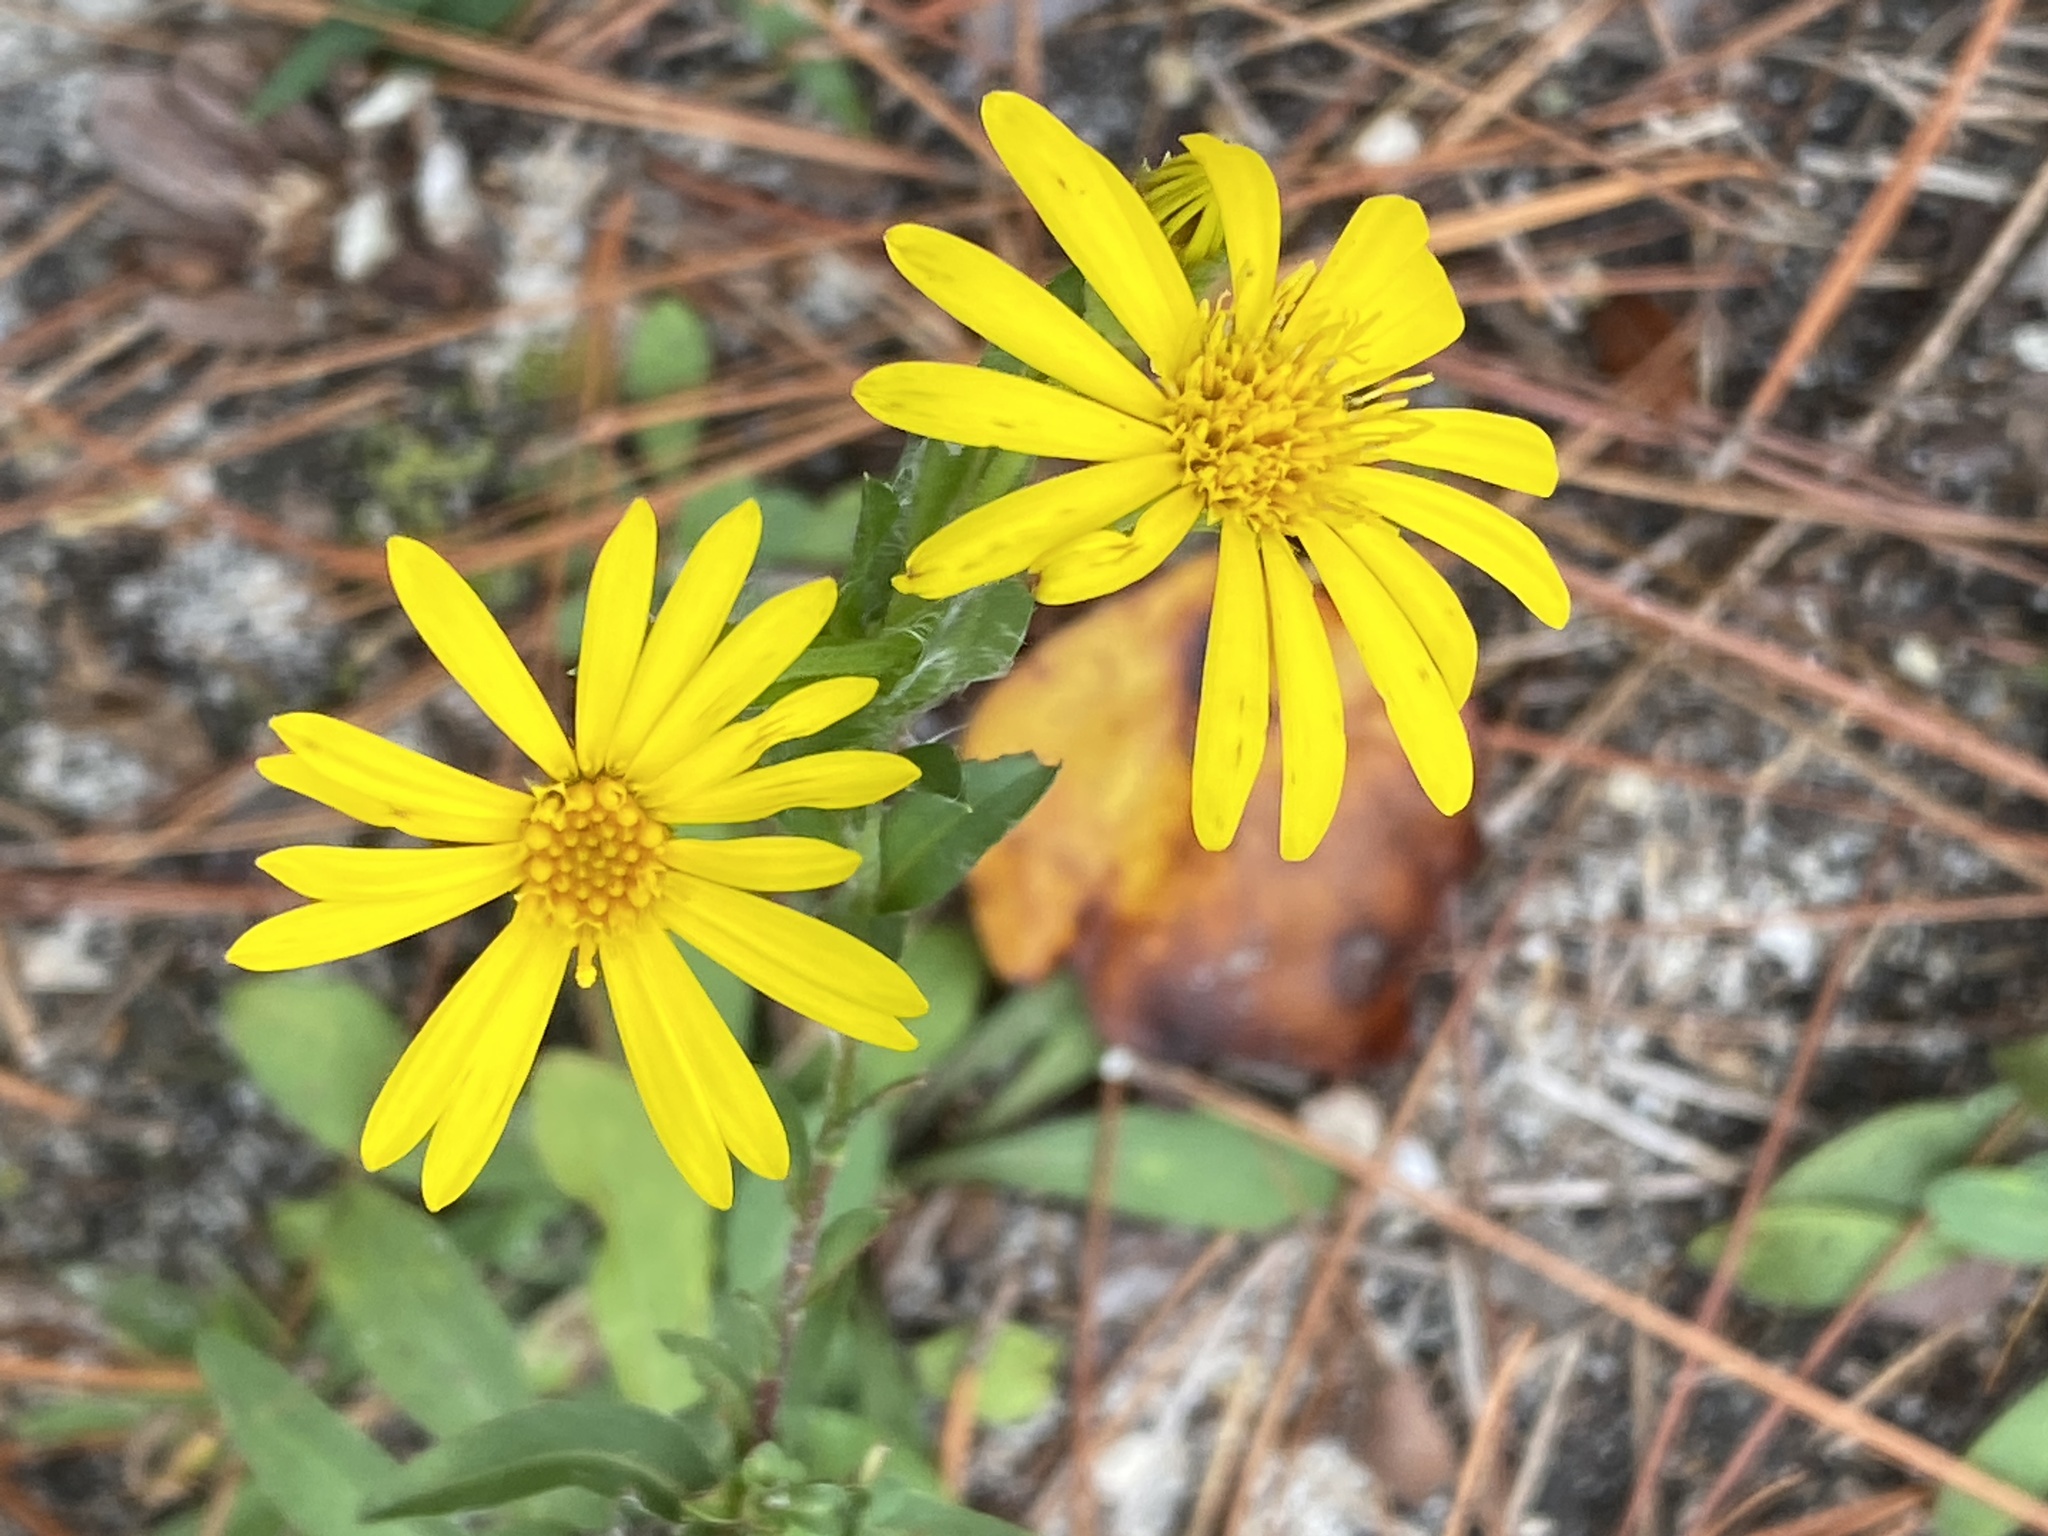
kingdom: Plantae
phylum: Tracheophyta
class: Magnoliopsida
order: Asterales
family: Asteraceae
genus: Chrysopsis
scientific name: Chrysopsis mariana
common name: Maryland golden-aster
